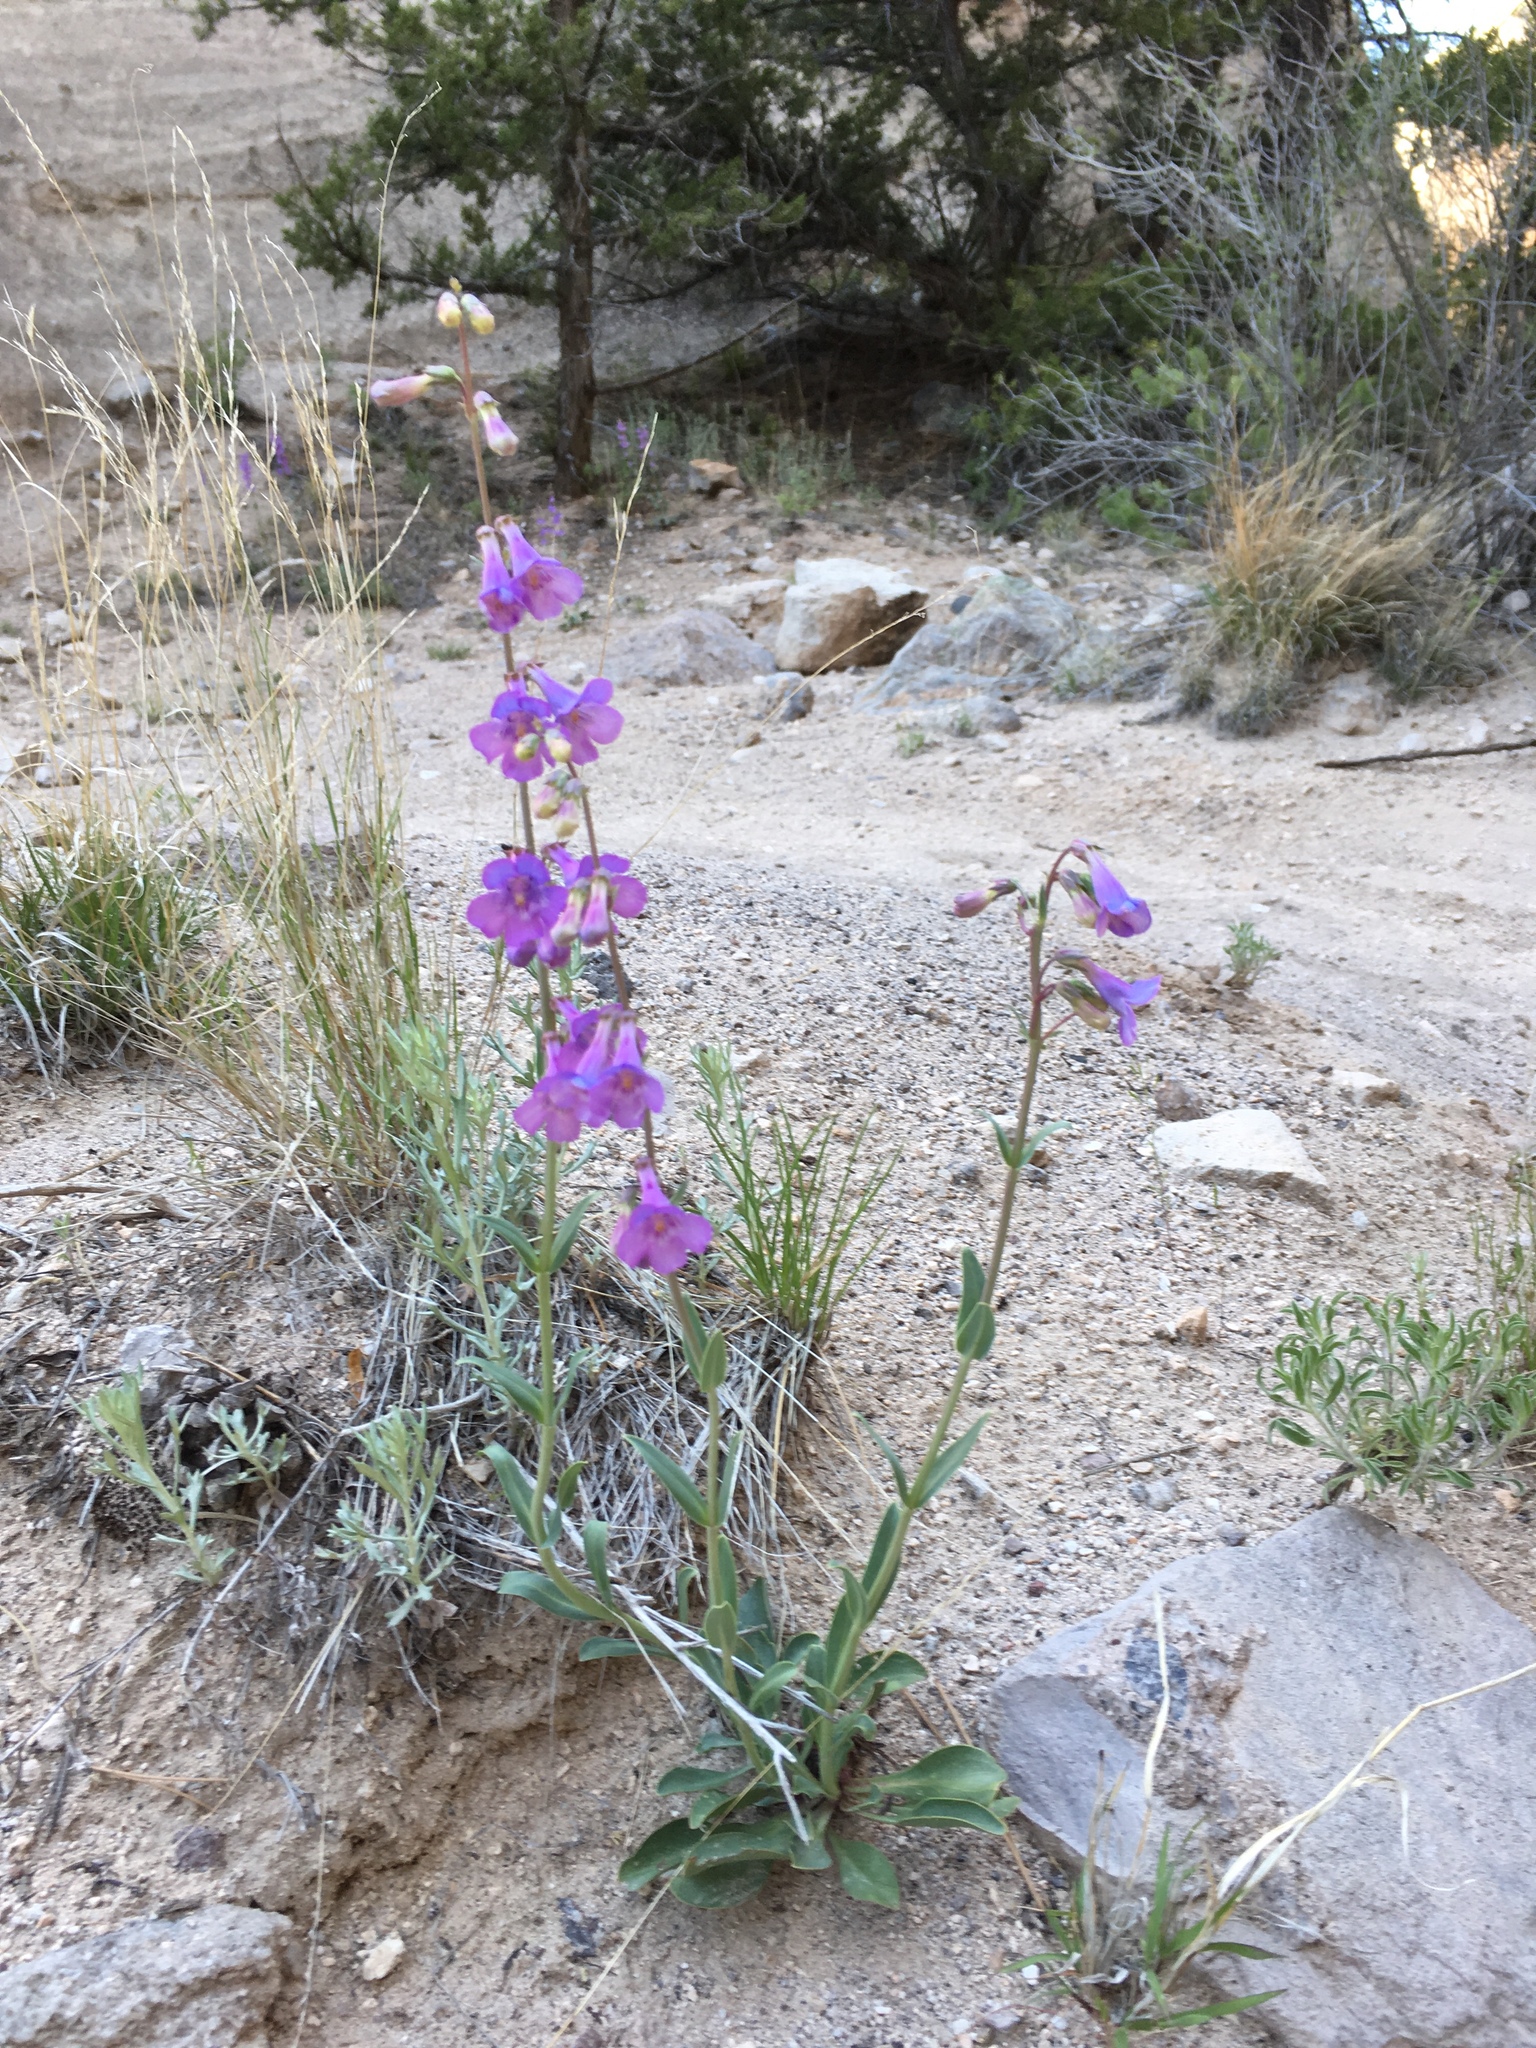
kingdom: Plantae
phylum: Tracheophyta
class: Magnoliopsida
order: Lamiales
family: Plantaginaceae
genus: Penstemon
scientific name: Penstemon secundiflorus
